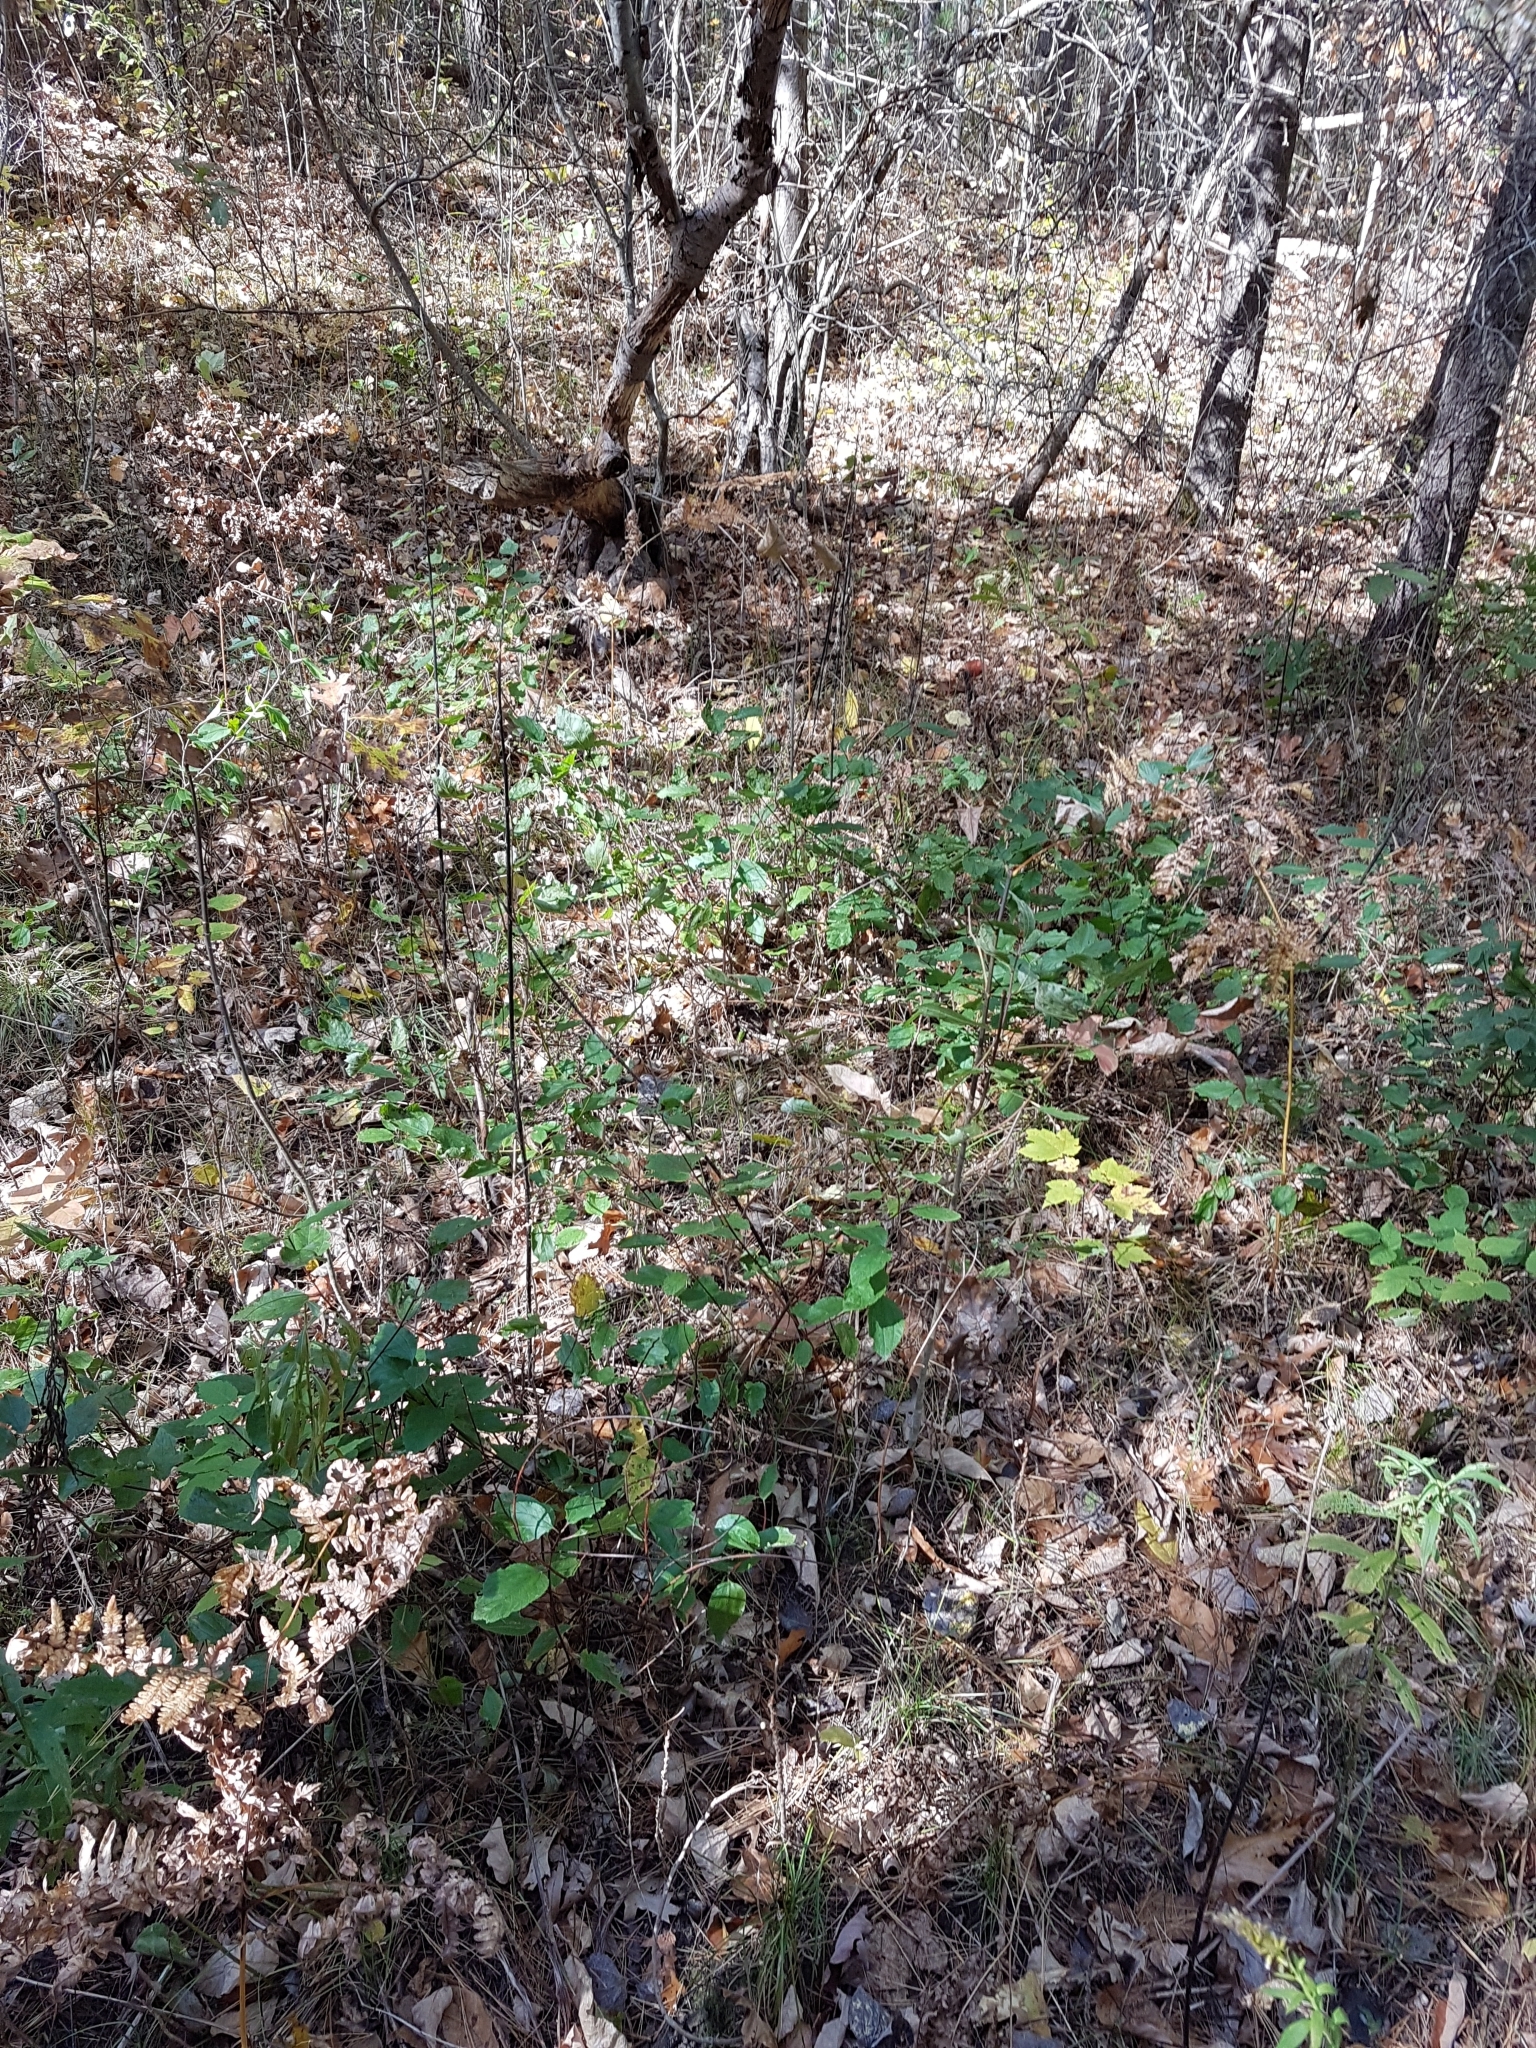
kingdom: Plantae
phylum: Tracheophyta
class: Magnoliopsida
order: Rosales
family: Rhamnaceae
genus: Ceanothus
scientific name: Ceanothus americanus
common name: Redroot
